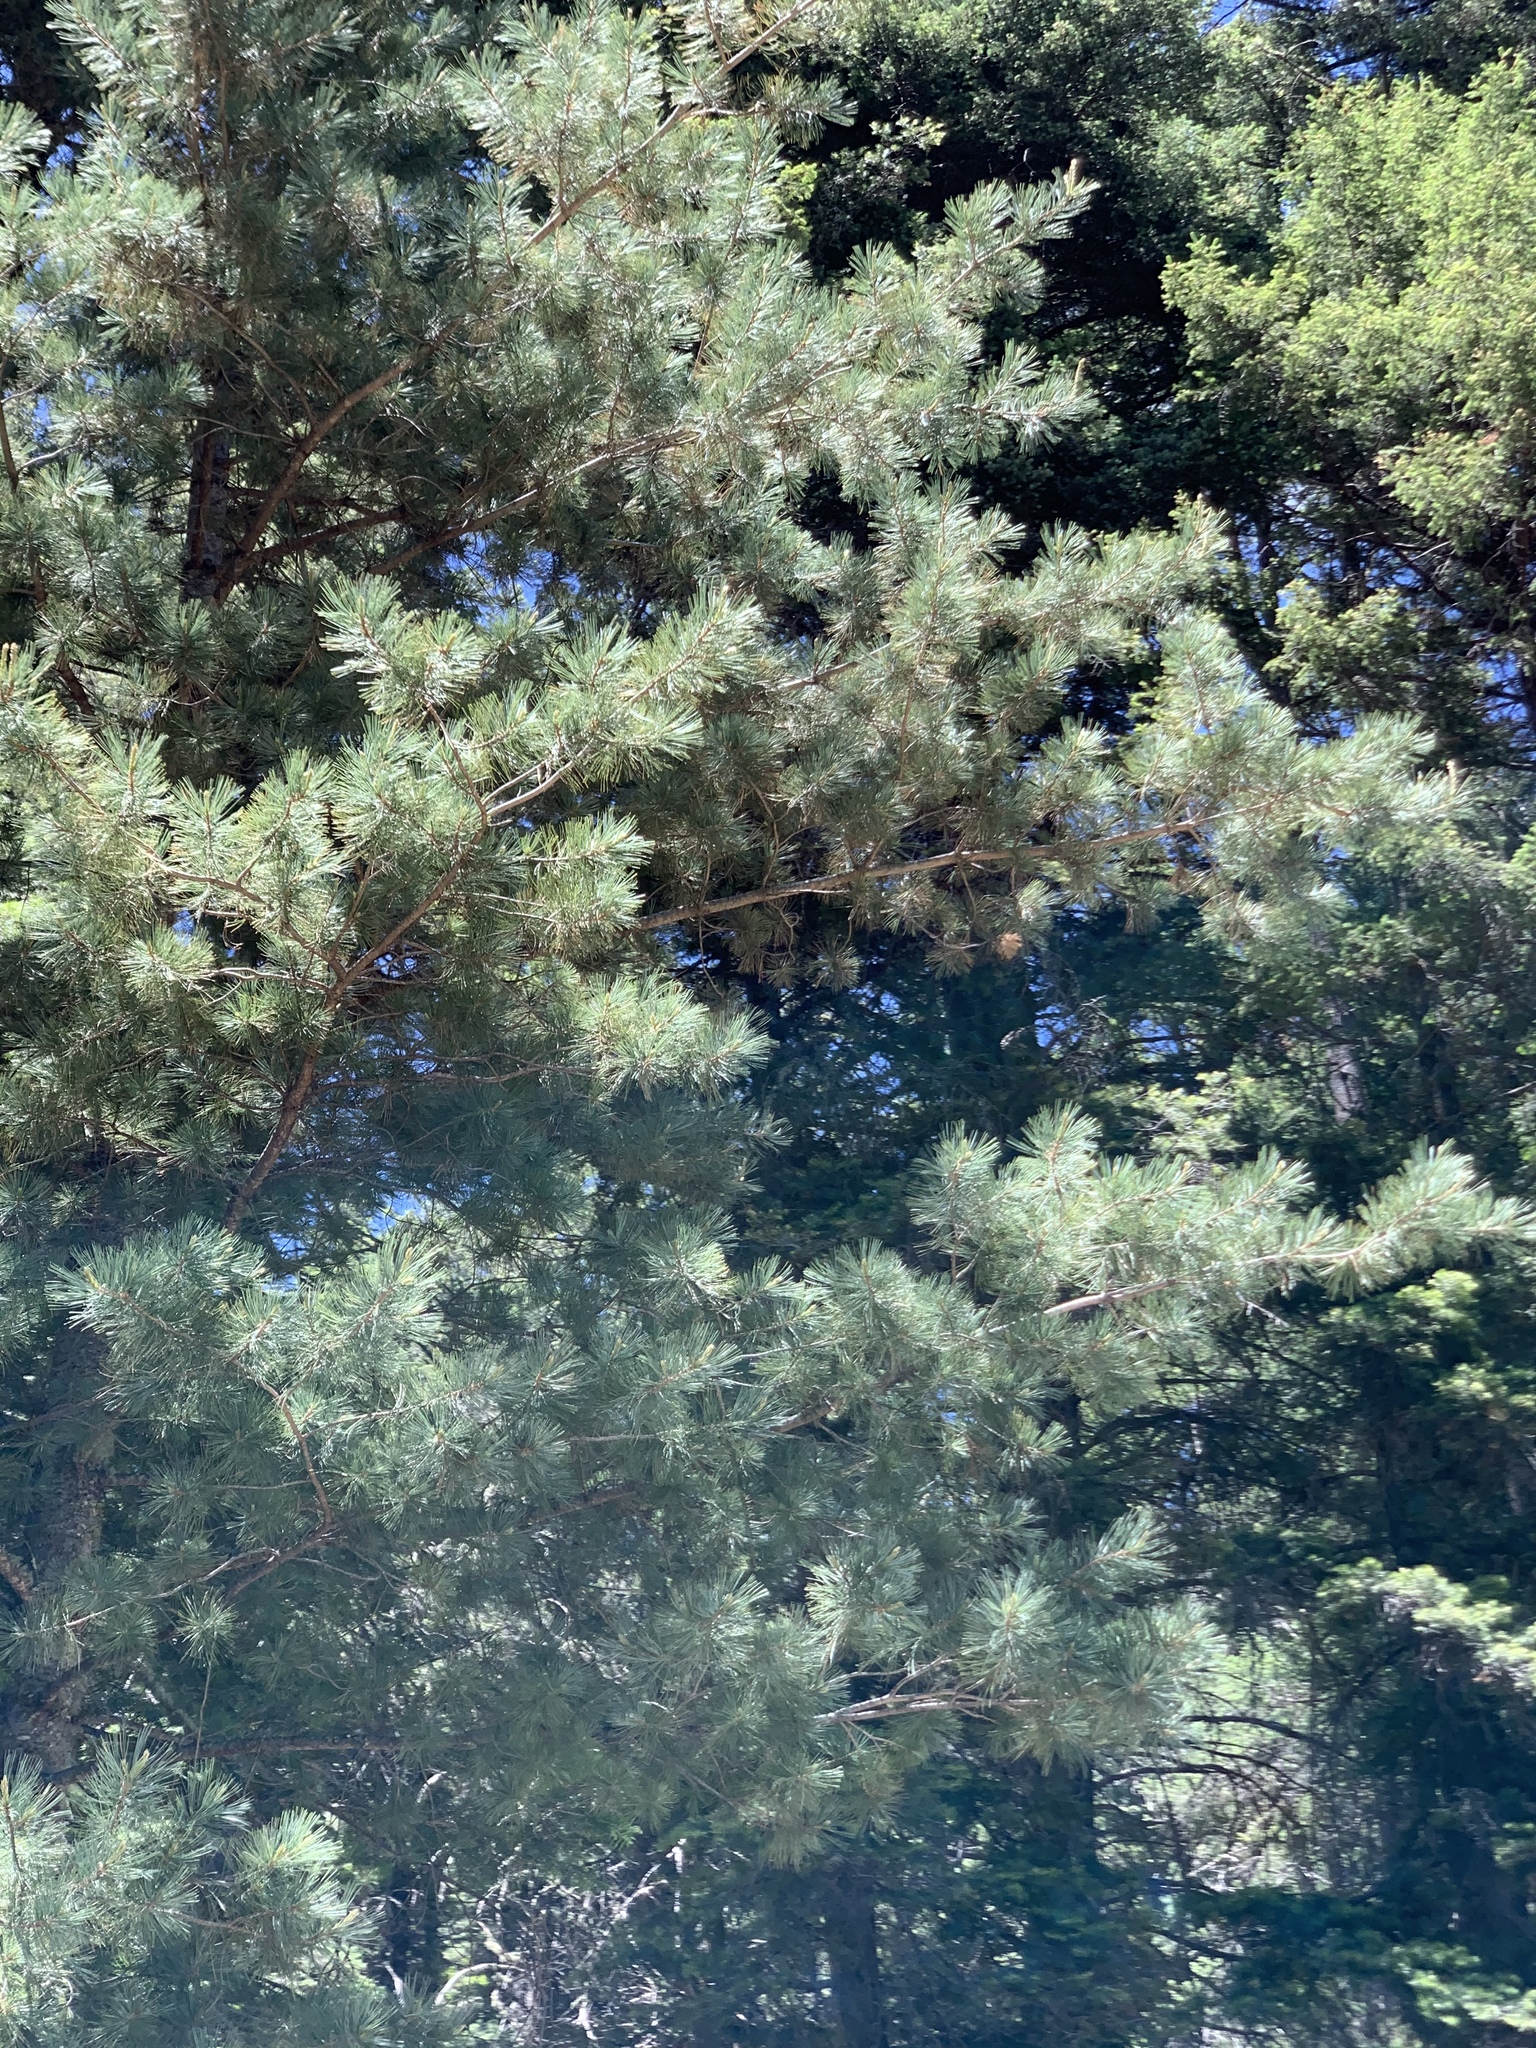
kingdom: Plantae
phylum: Tracheophyta
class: Pinopsida
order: Pinales
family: Pinaceae
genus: Pinus
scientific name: Pinus strobiformis
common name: Southwestern white pine
